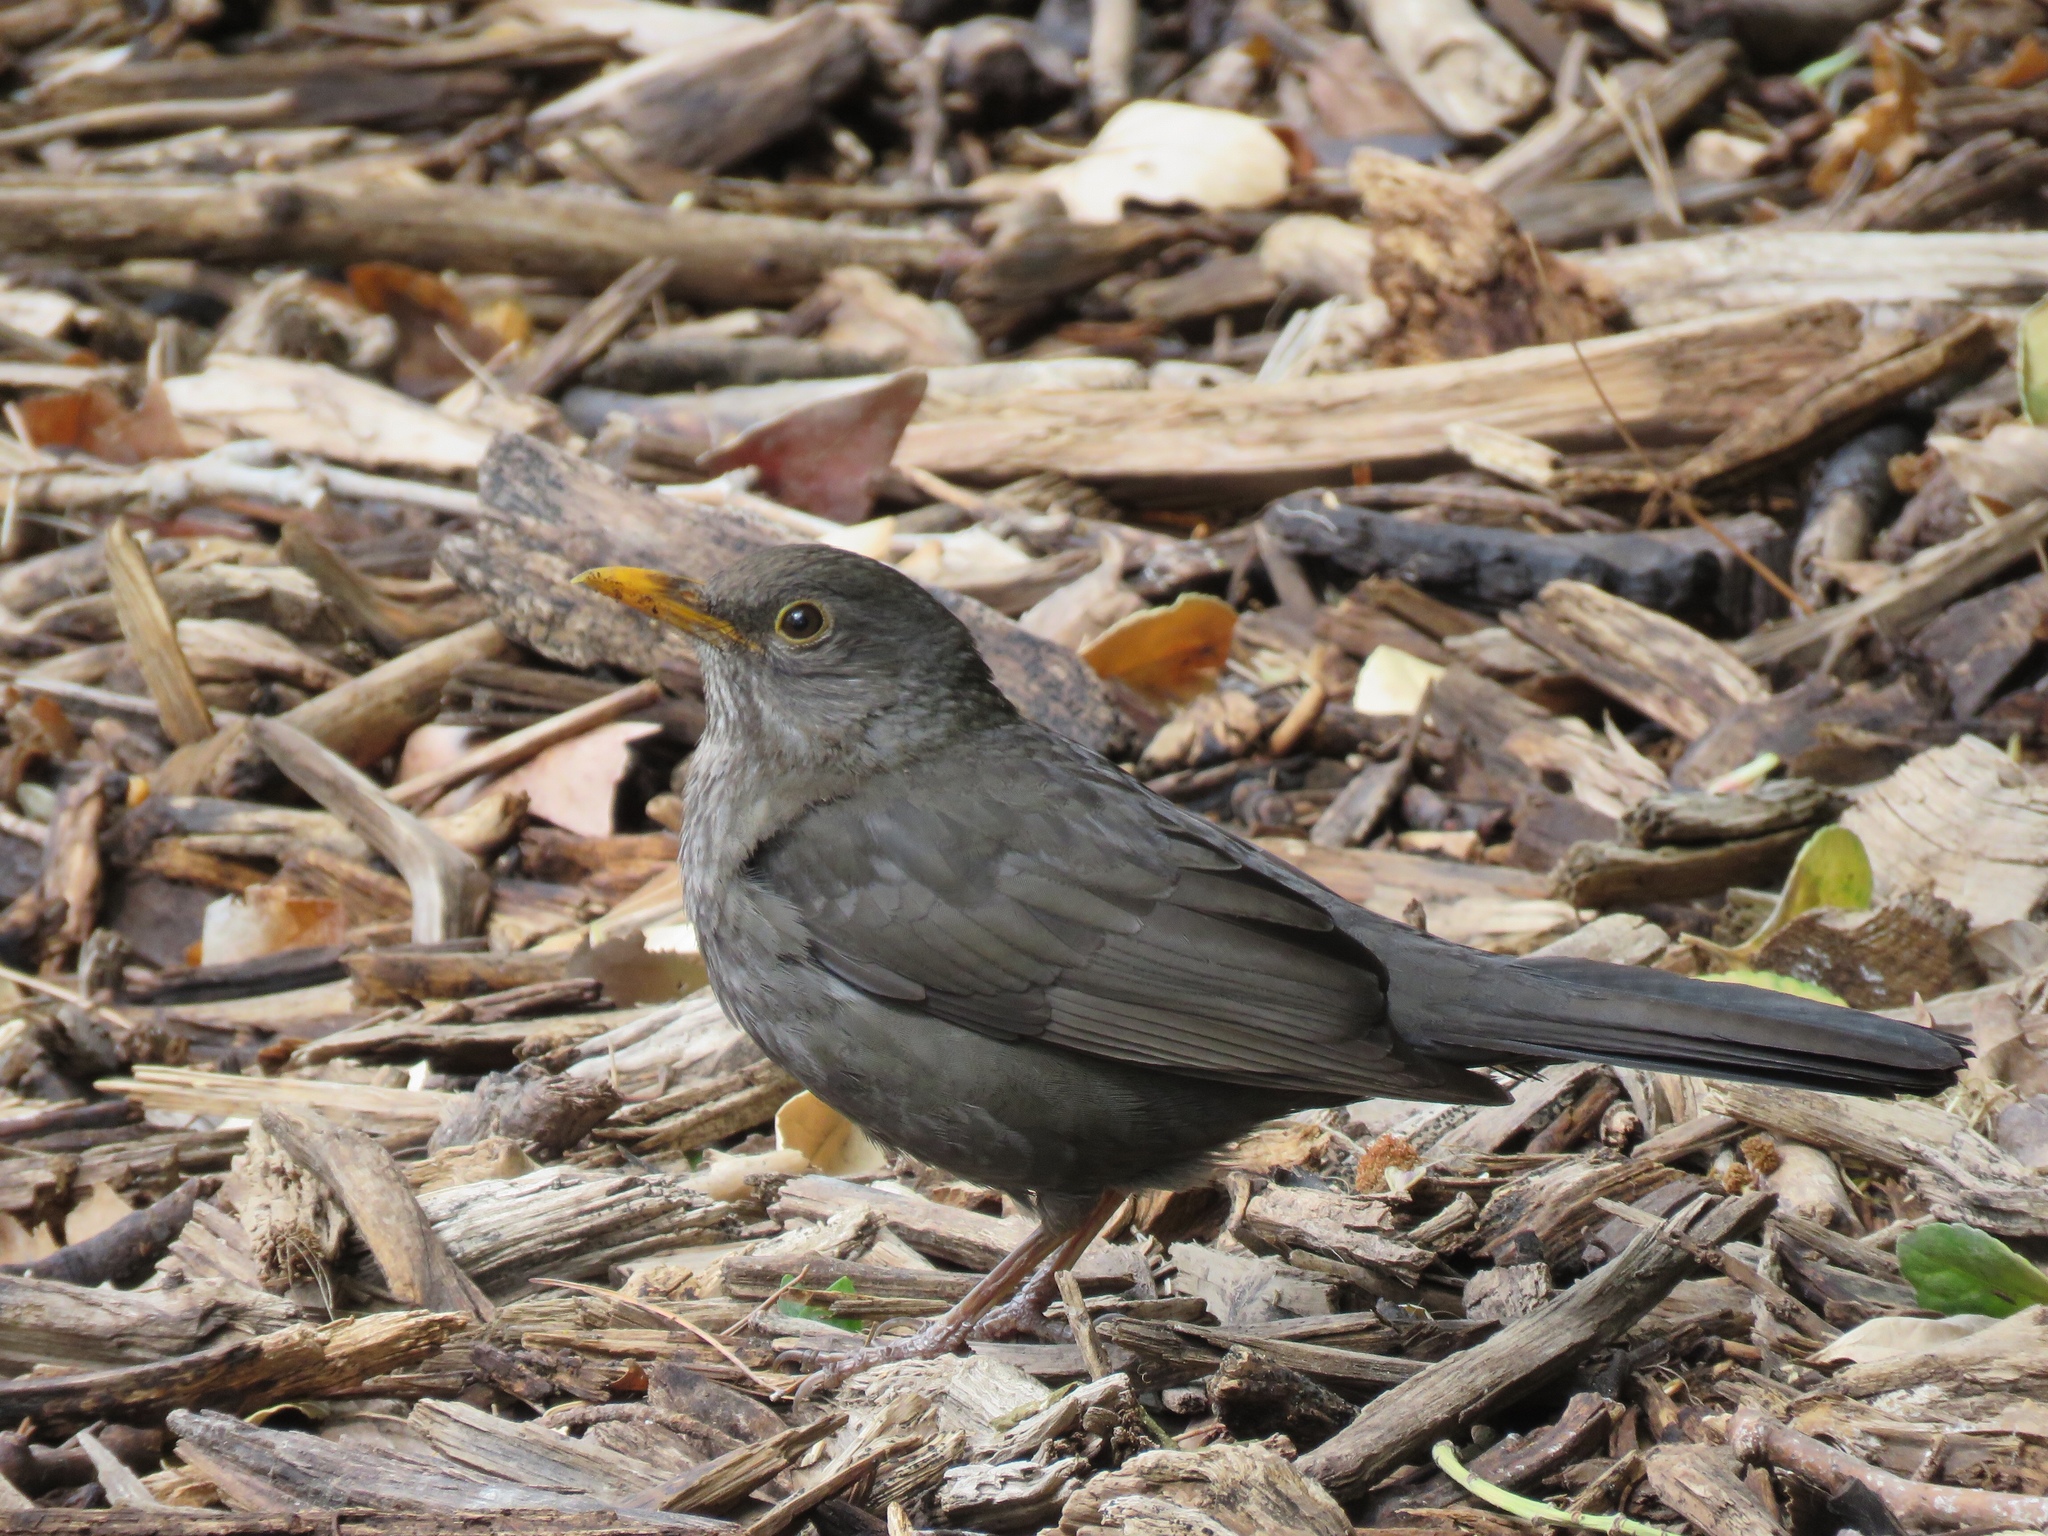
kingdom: Animalia
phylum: Chordata
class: Aves
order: Passeriformes
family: Turdidae
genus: Turdus
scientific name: Turdus merula
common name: Common blackbird
